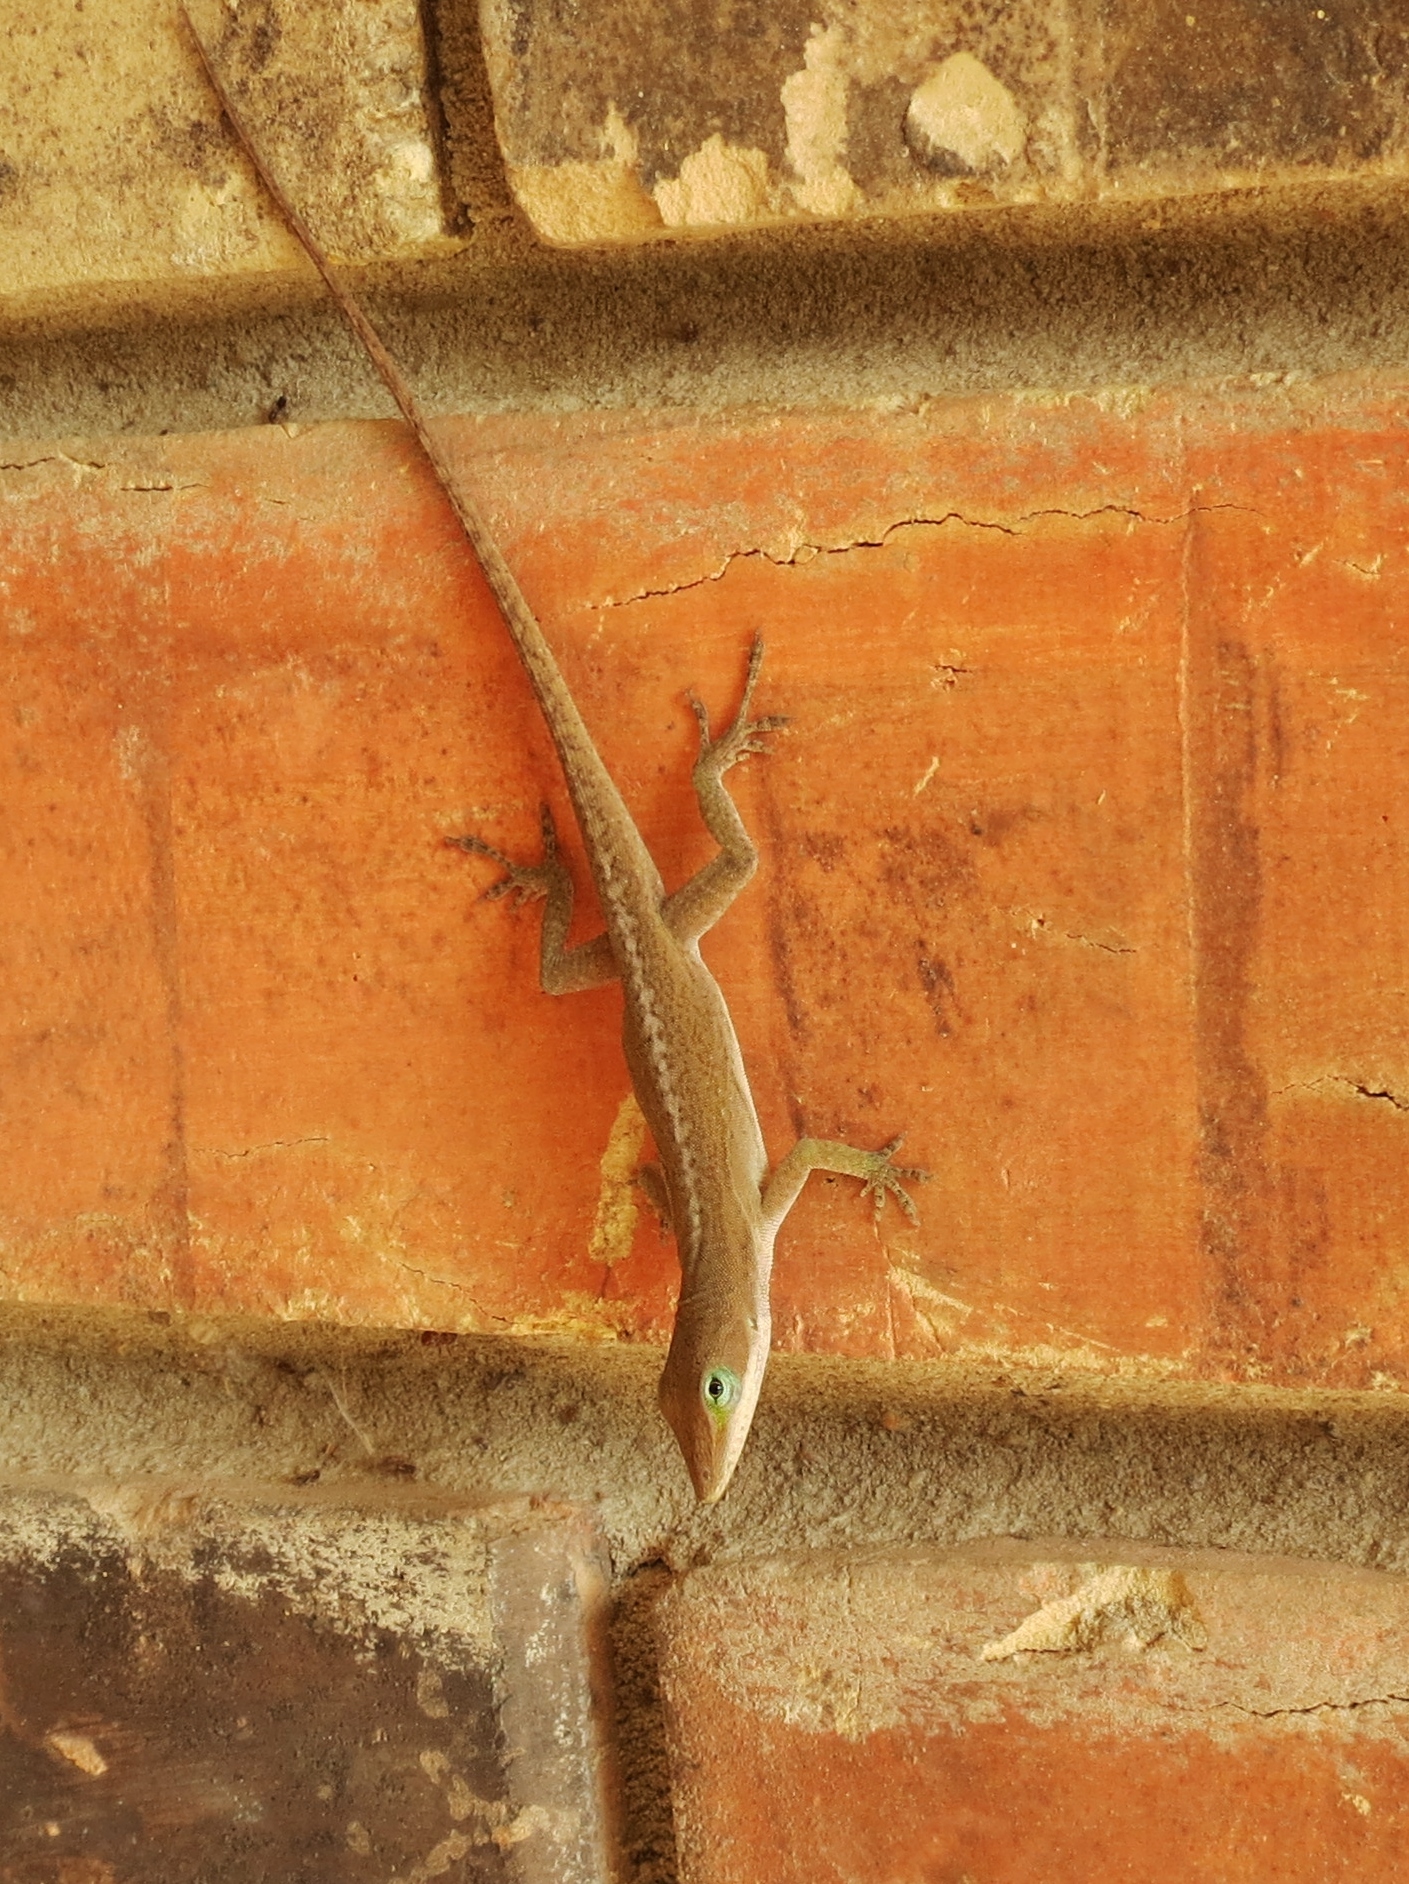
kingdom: Animalia
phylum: Chordata
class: Squamata
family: Dactyloidae
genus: Anolis
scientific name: Anolis carolinensis
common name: Green anole
